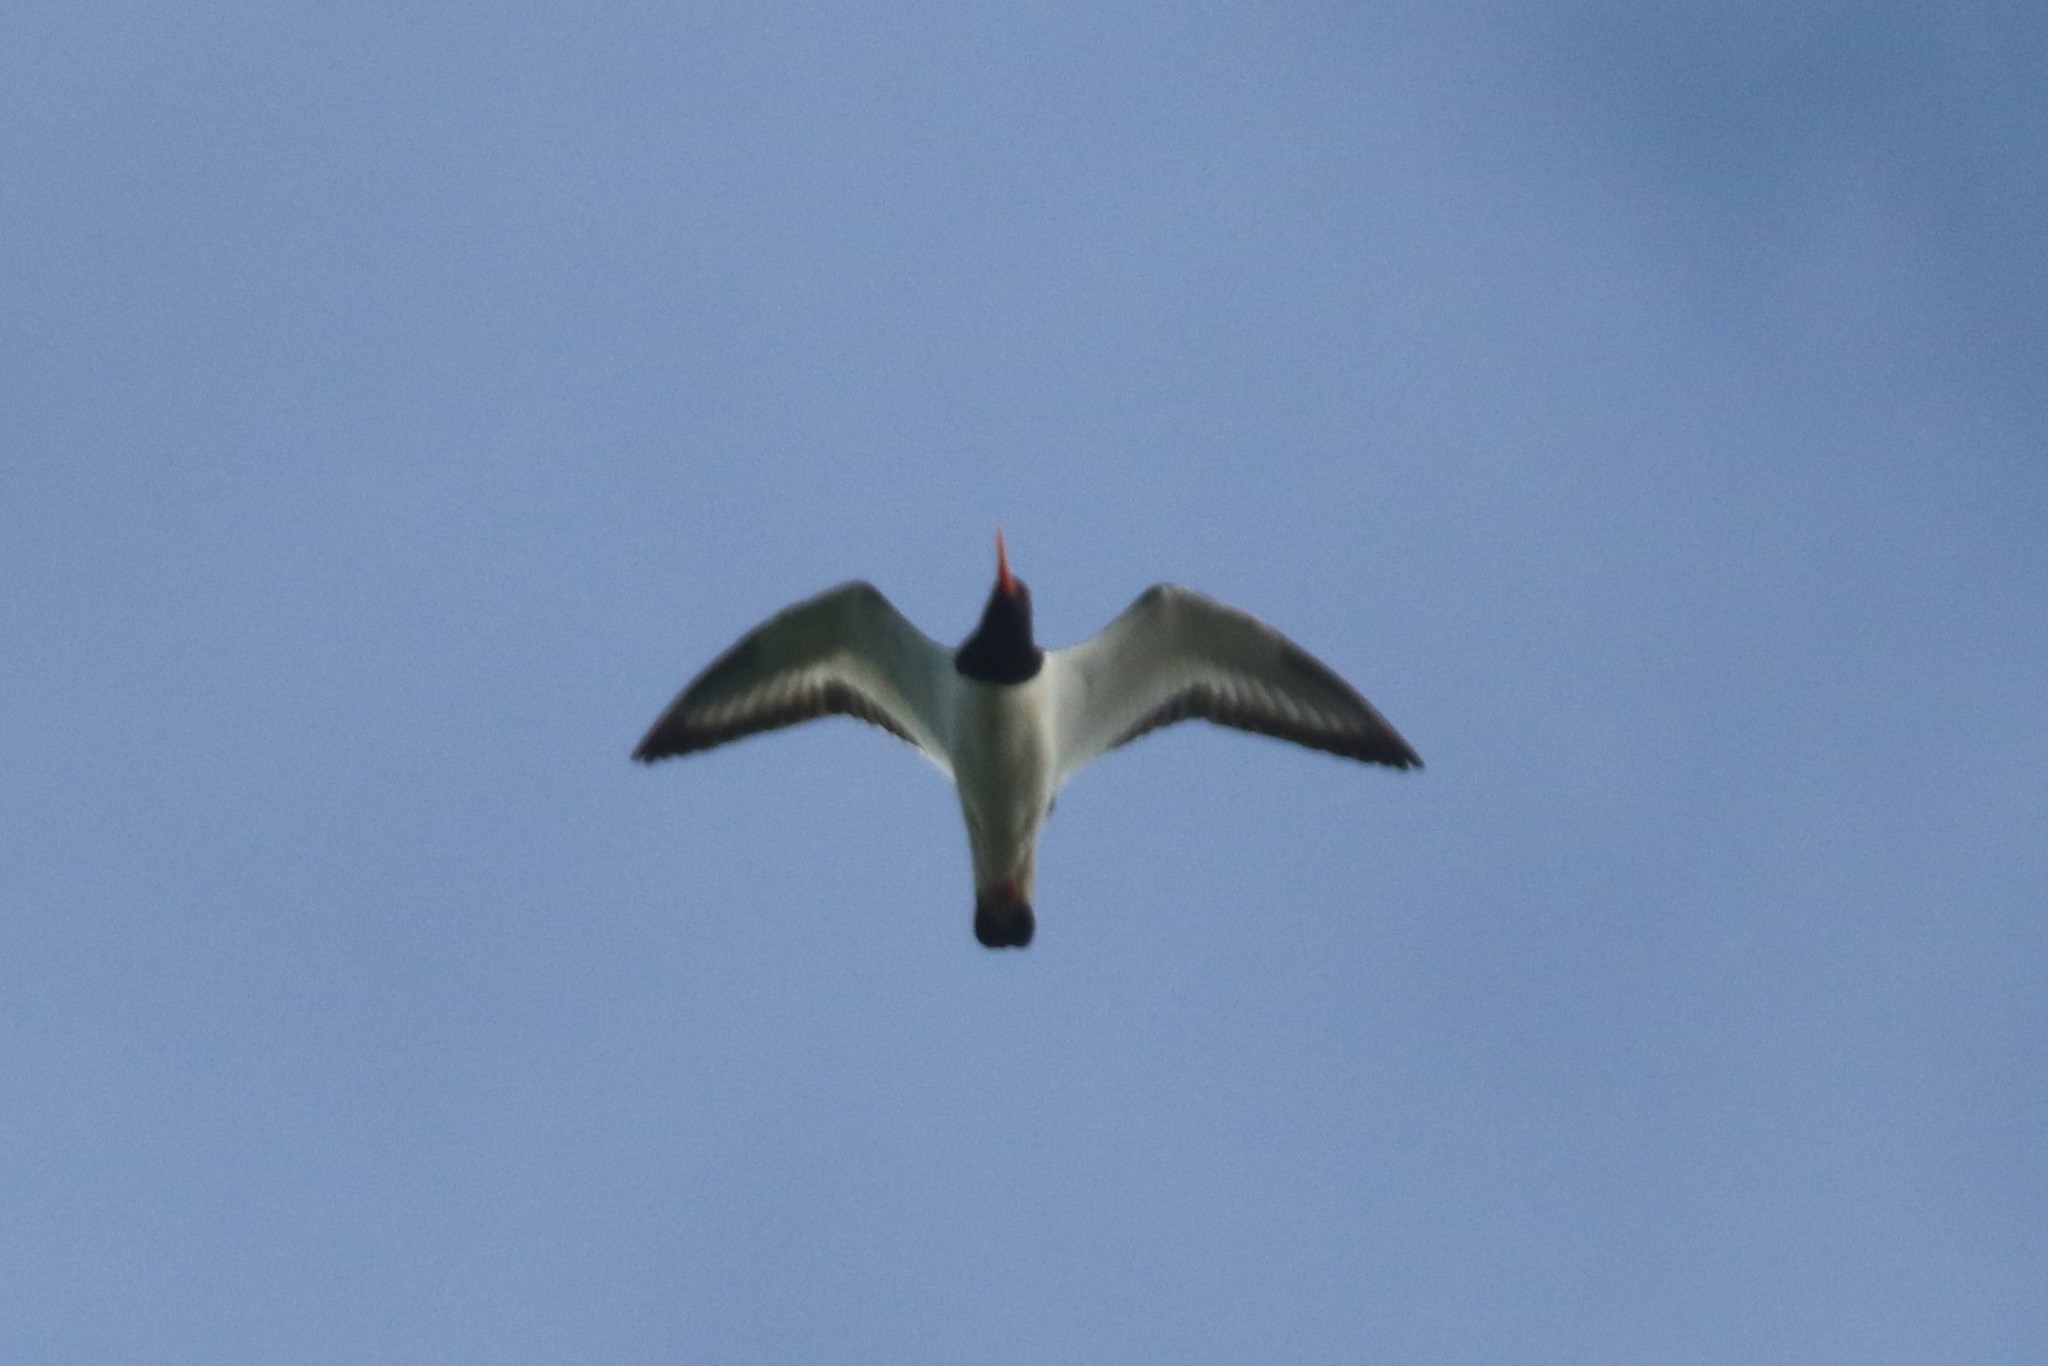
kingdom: Animalia
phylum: Chordata
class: Aves
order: Charadriiformes
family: Haematopodidae
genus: Haematopus
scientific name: Haematopus ostralegus
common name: Eurasian oystercatcher
